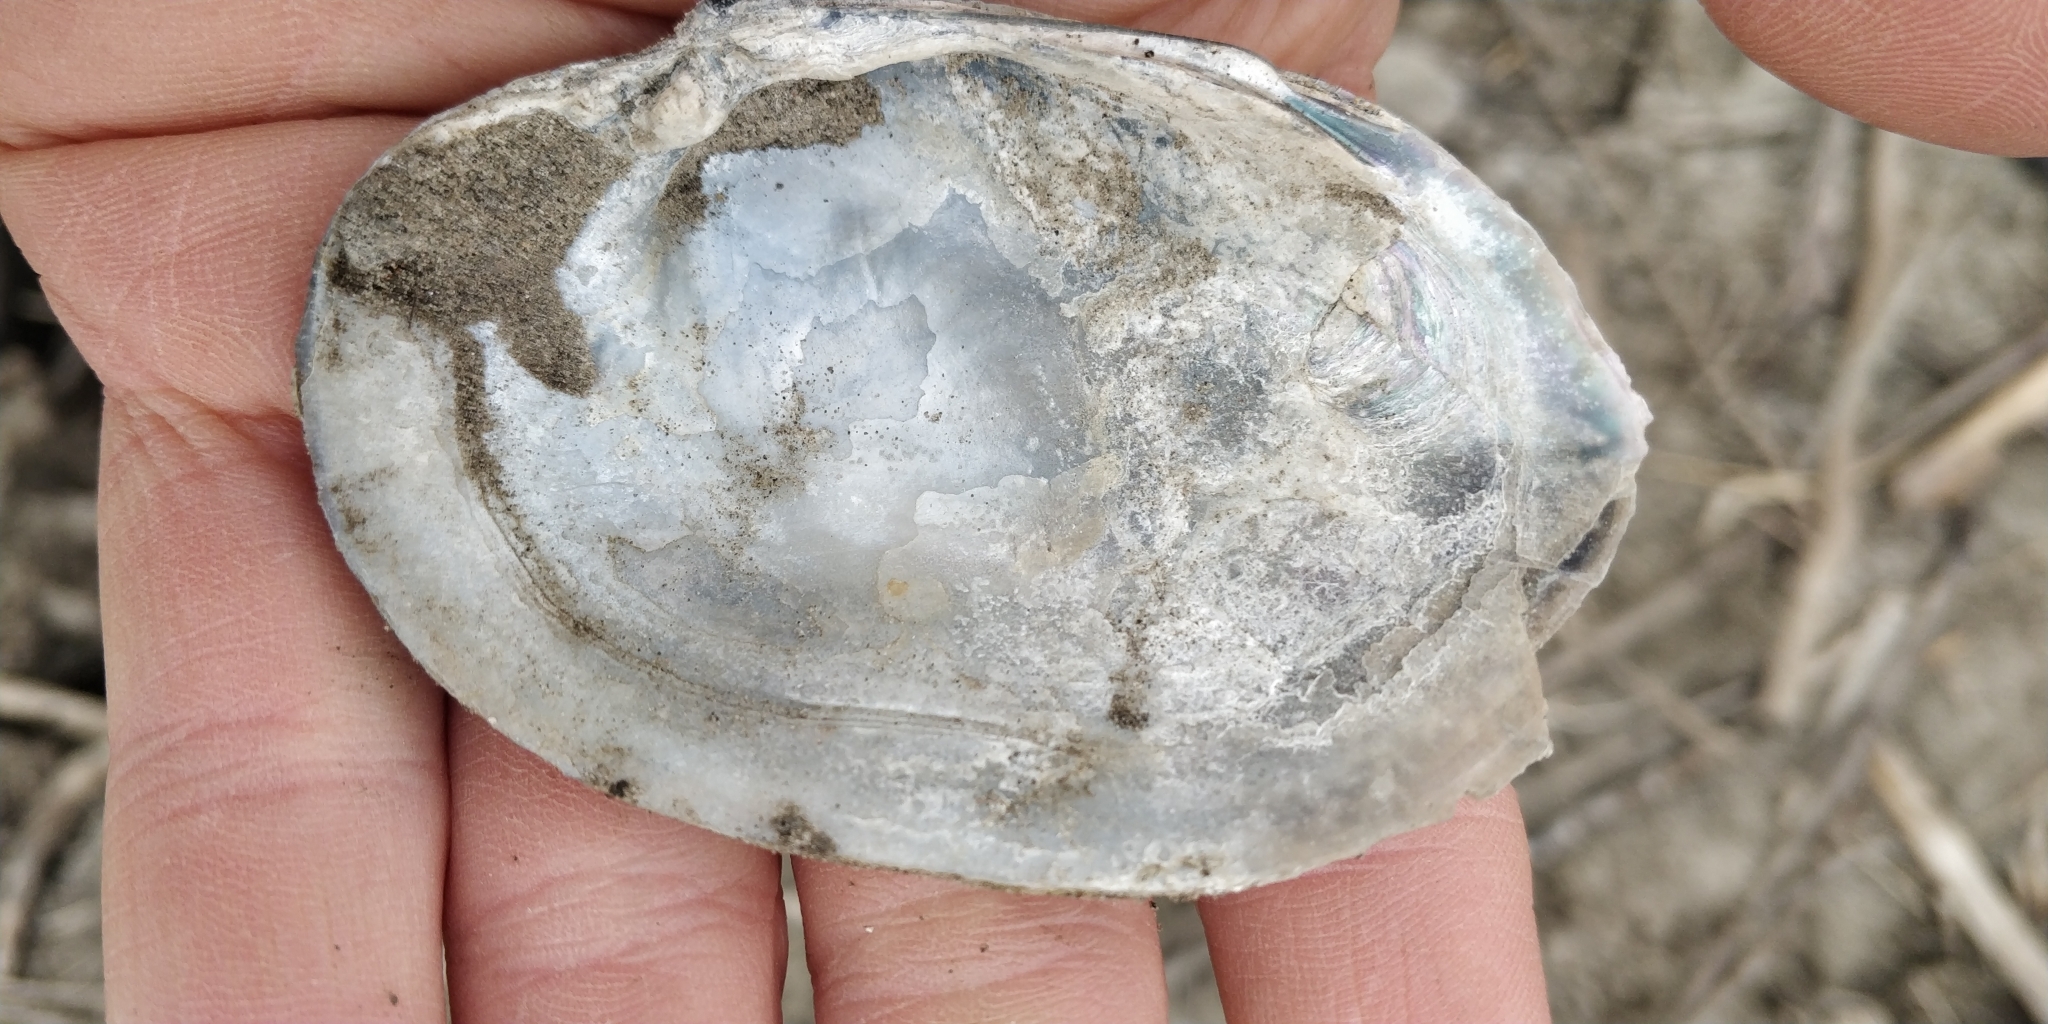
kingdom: Animalia
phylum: Mollusca
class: Bivalvia
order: Unionida
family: Unionidae
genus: Lampsilis
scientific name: Lampsilis cardium
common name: Plain pocketbook
